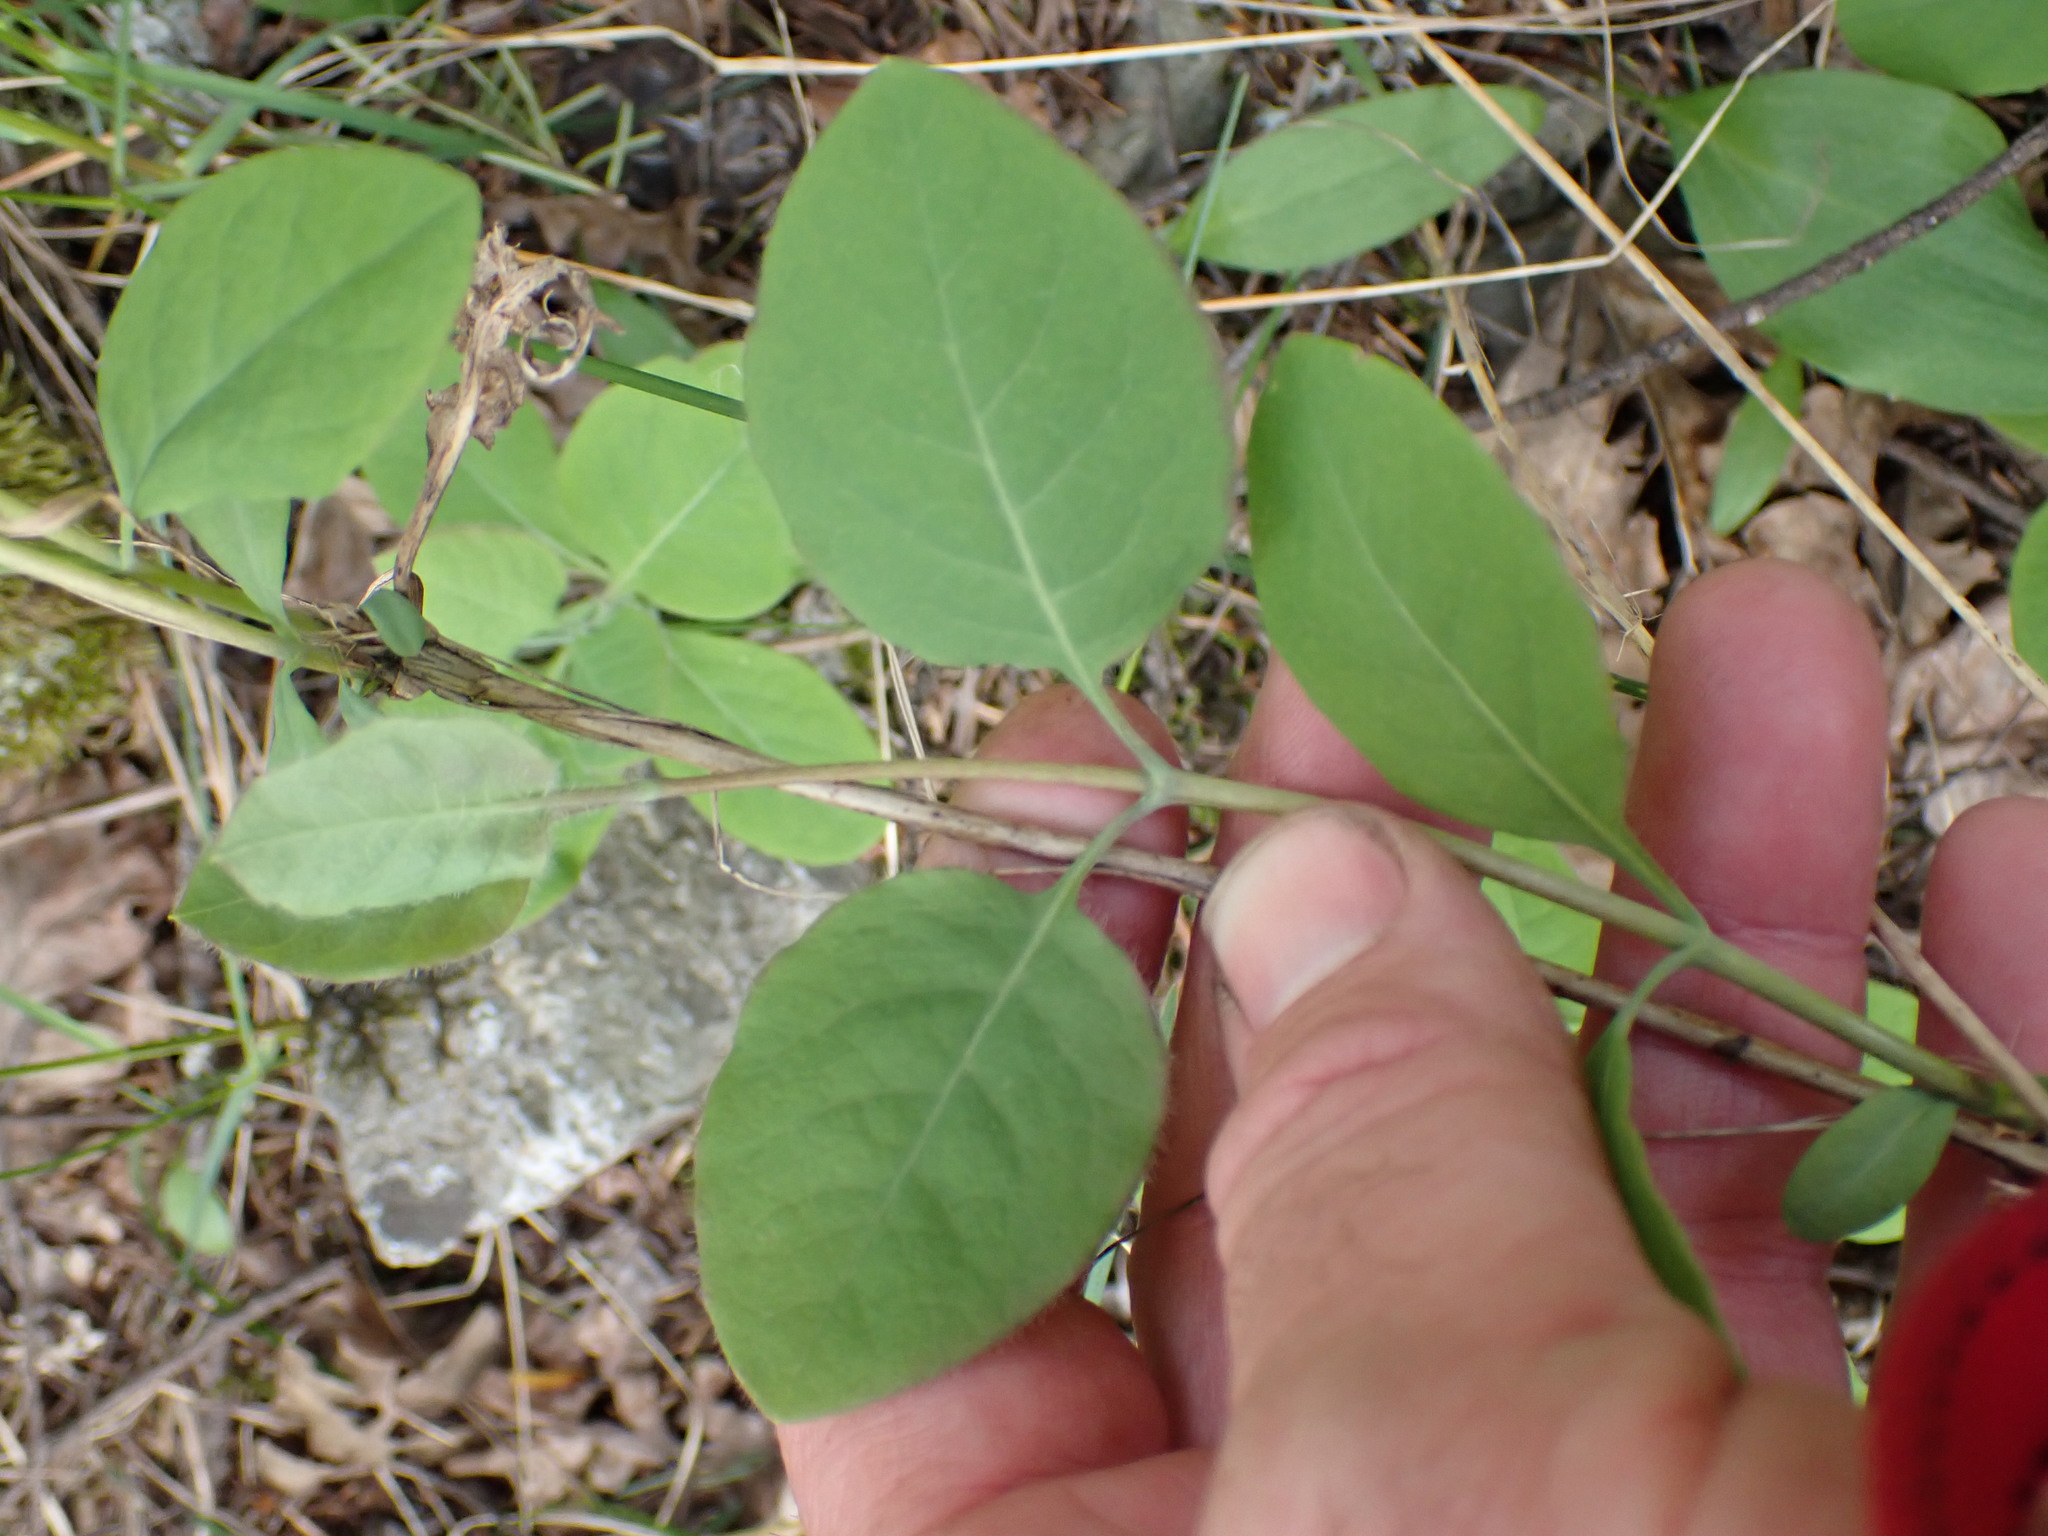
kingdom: Plantae
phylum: Tracheophyta
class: Magnoliopsida
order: Dipsacales
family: Caprifoliaceae
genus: Lonicera
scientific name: Lonicera ciliosa
